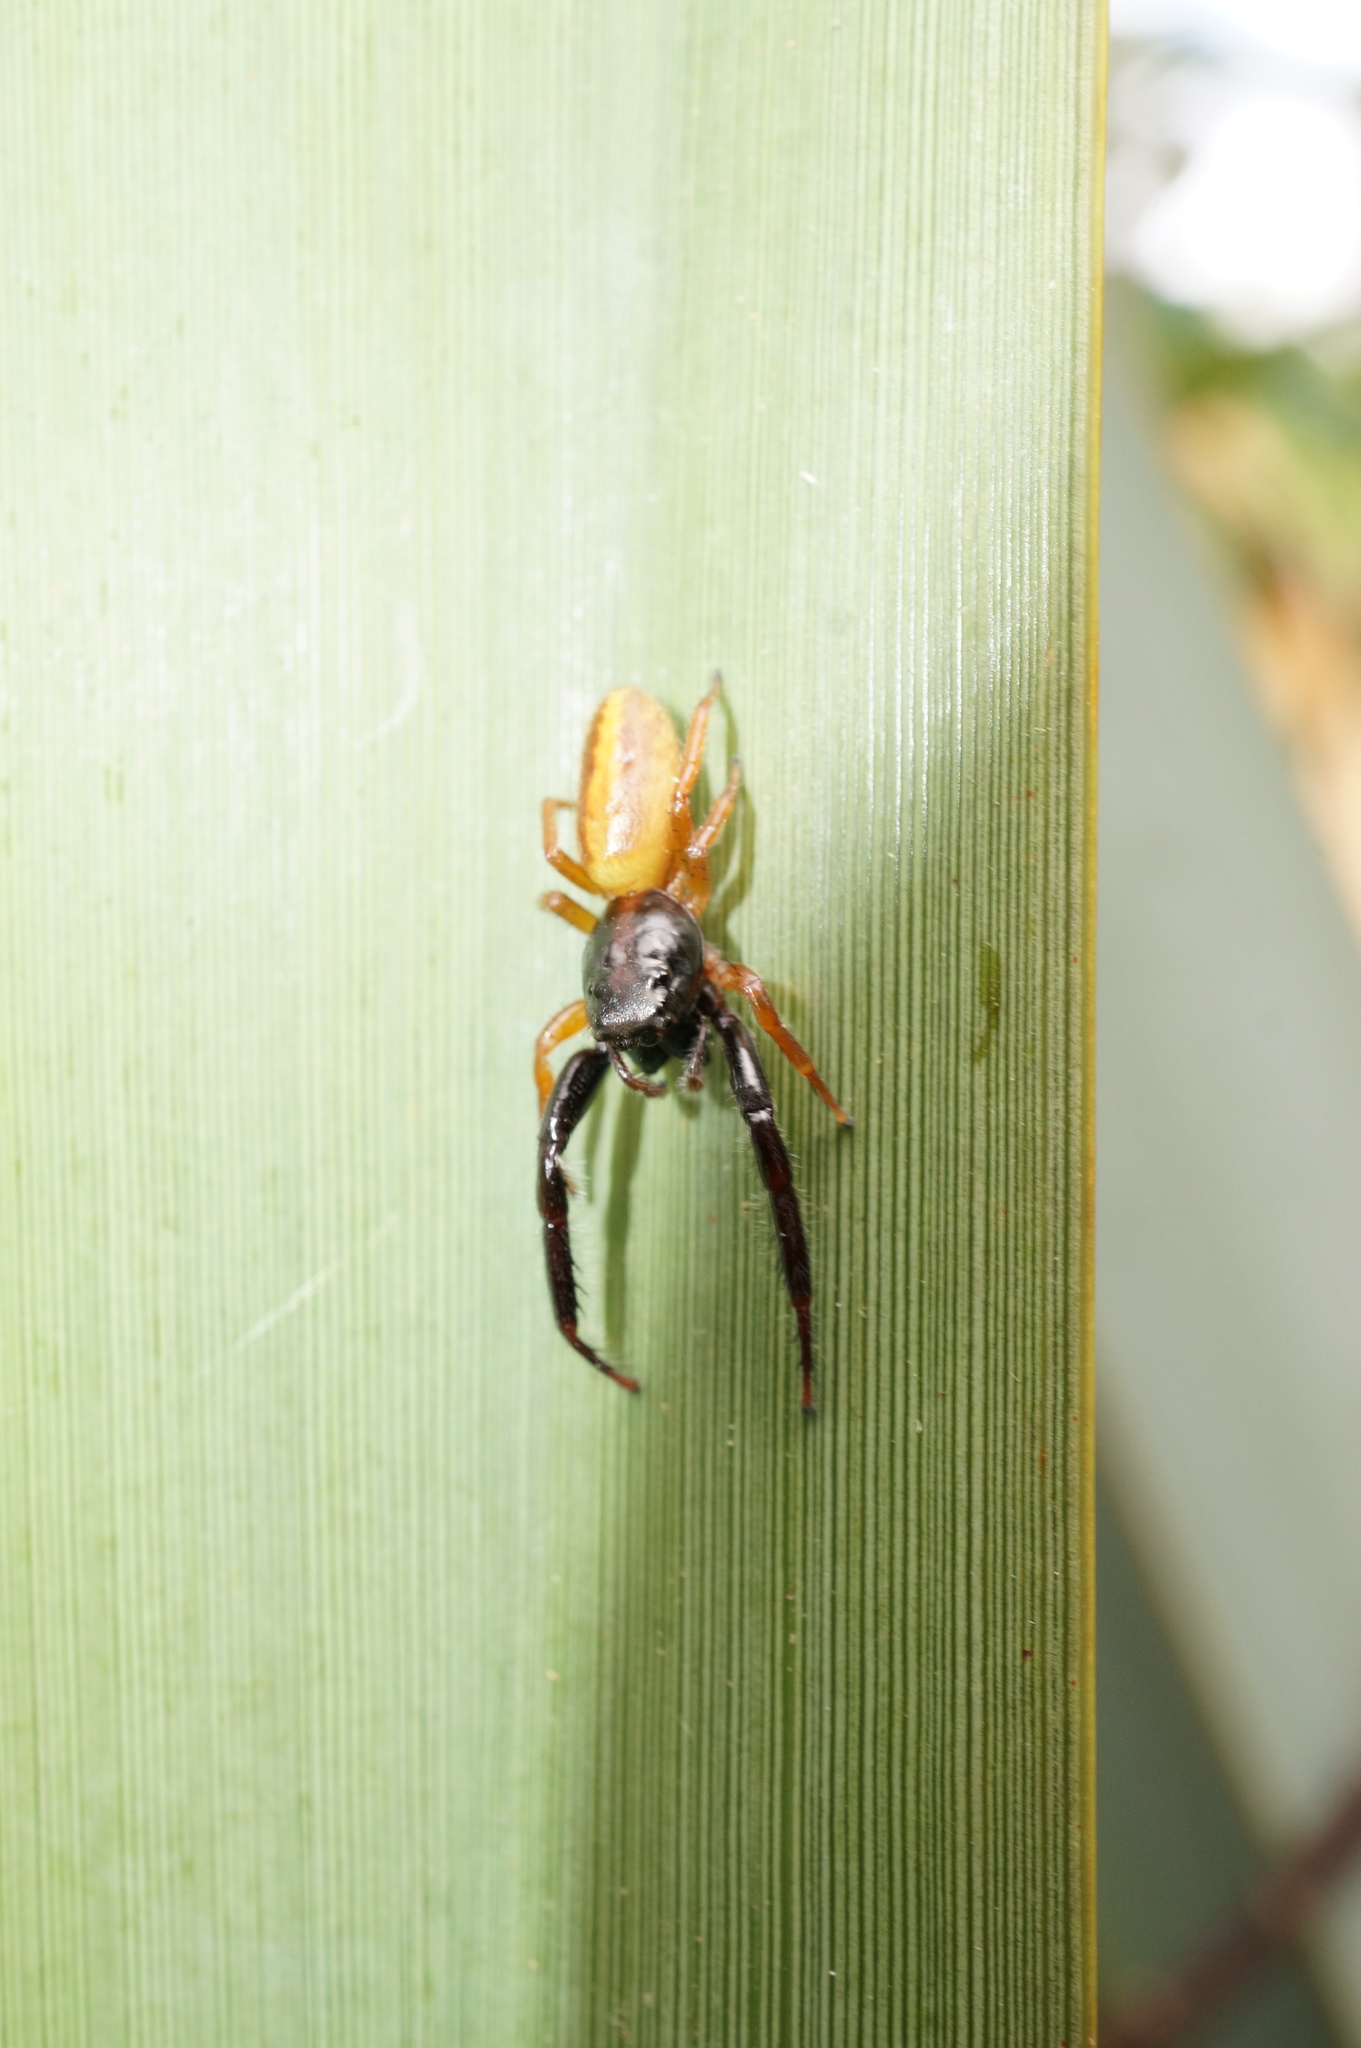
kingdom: Animalia
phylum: Arthropoda
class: Arachnida
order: Araneae
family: Salticidae
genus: Trite
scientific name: Trite planiceps
